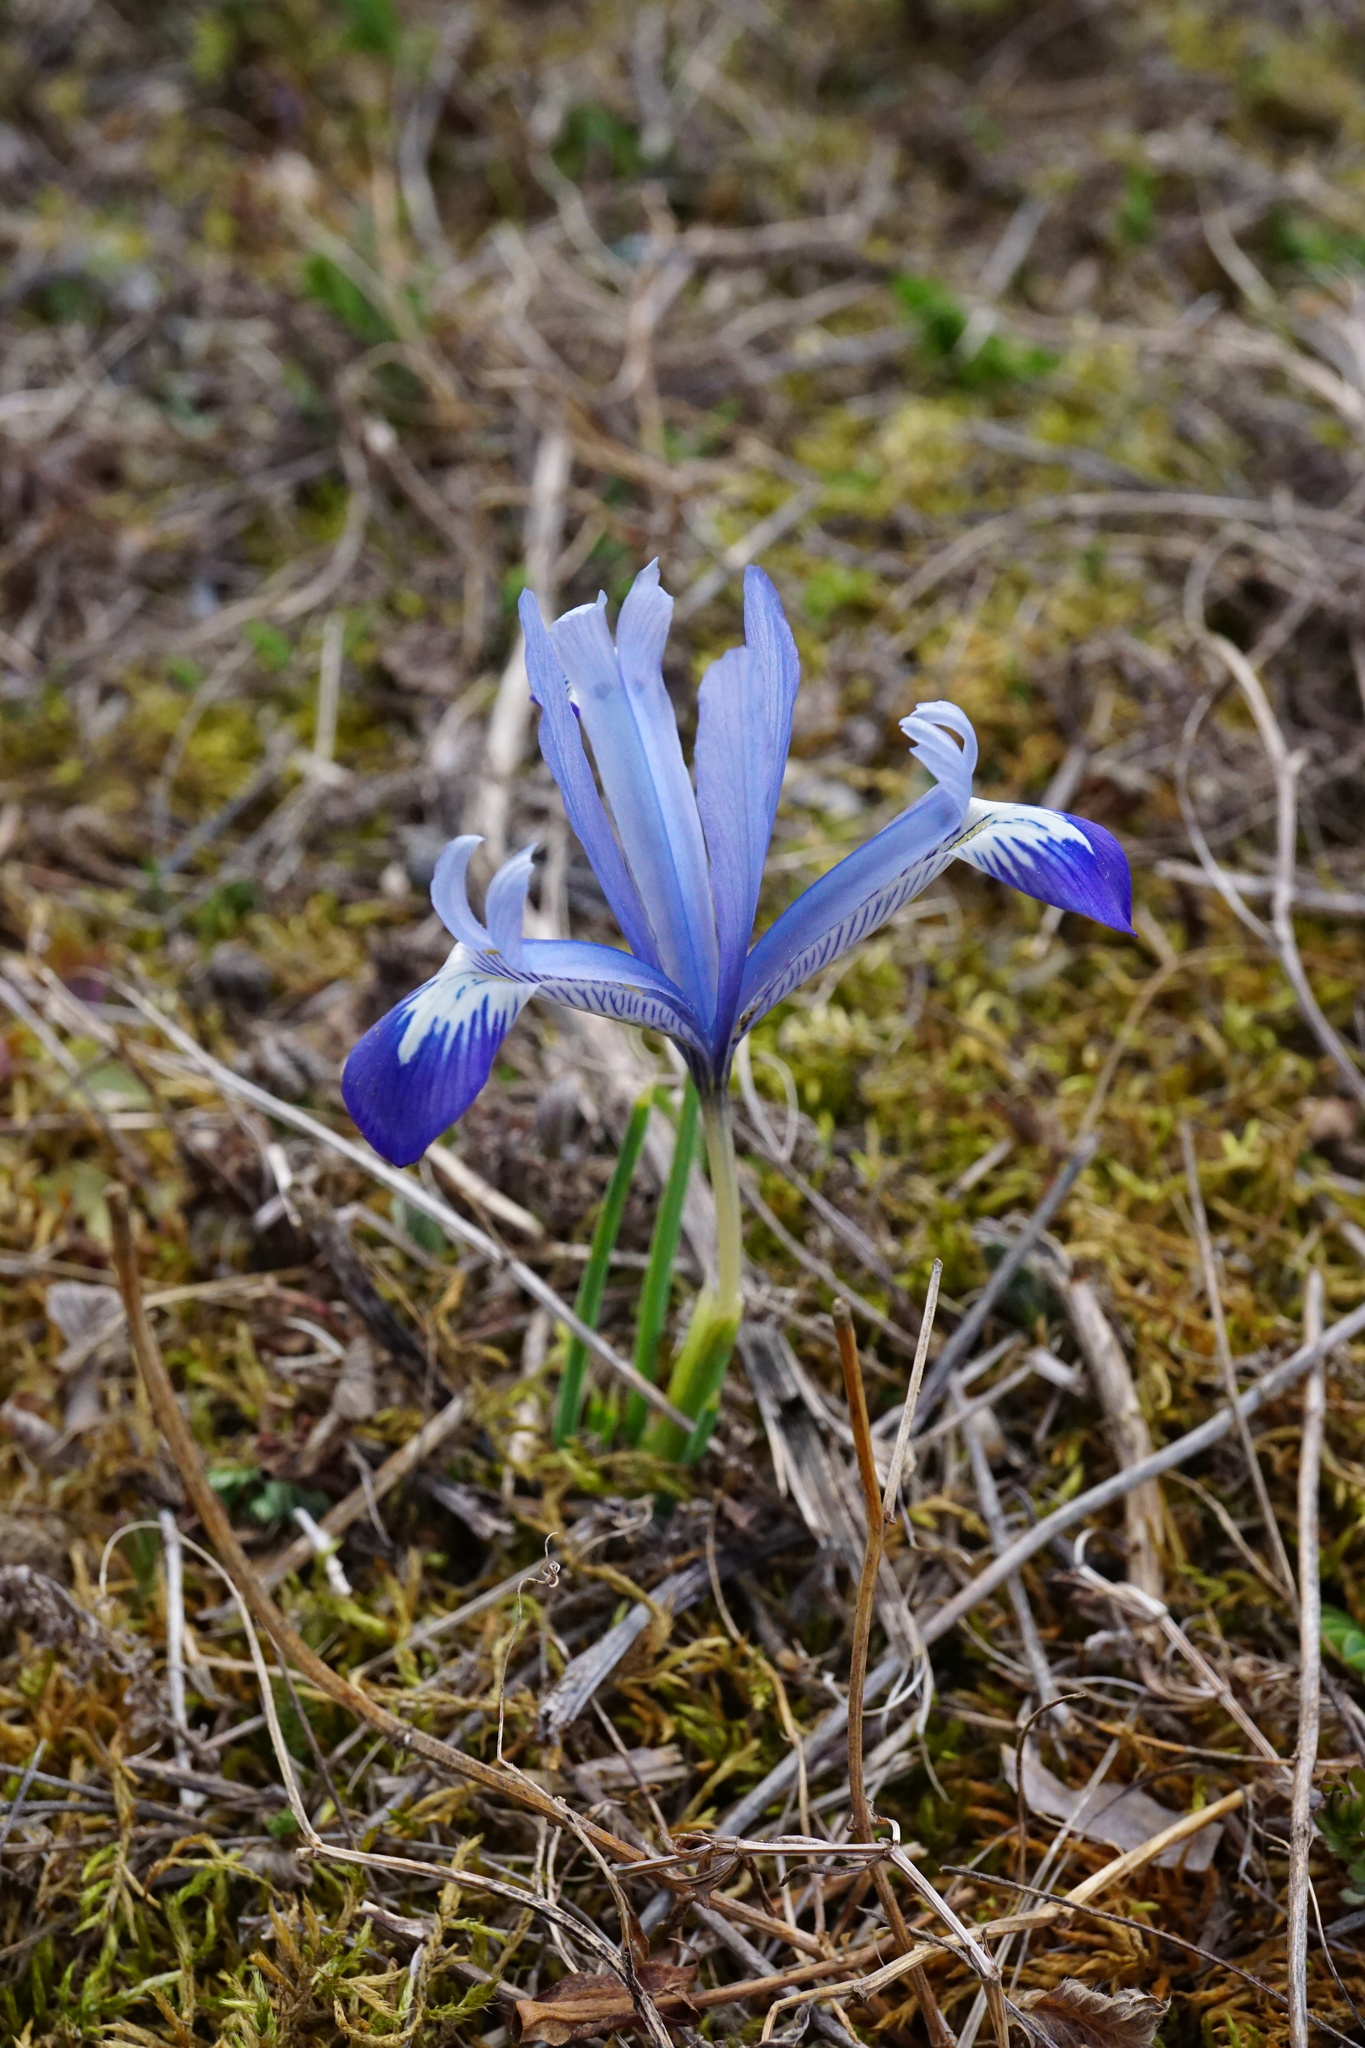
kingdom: Plantae
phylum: Tracheophyta
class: Liliopsida
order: Asparagales
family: Iridaceae
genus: Iris
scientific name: Iris reticulata
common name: Netted iris
